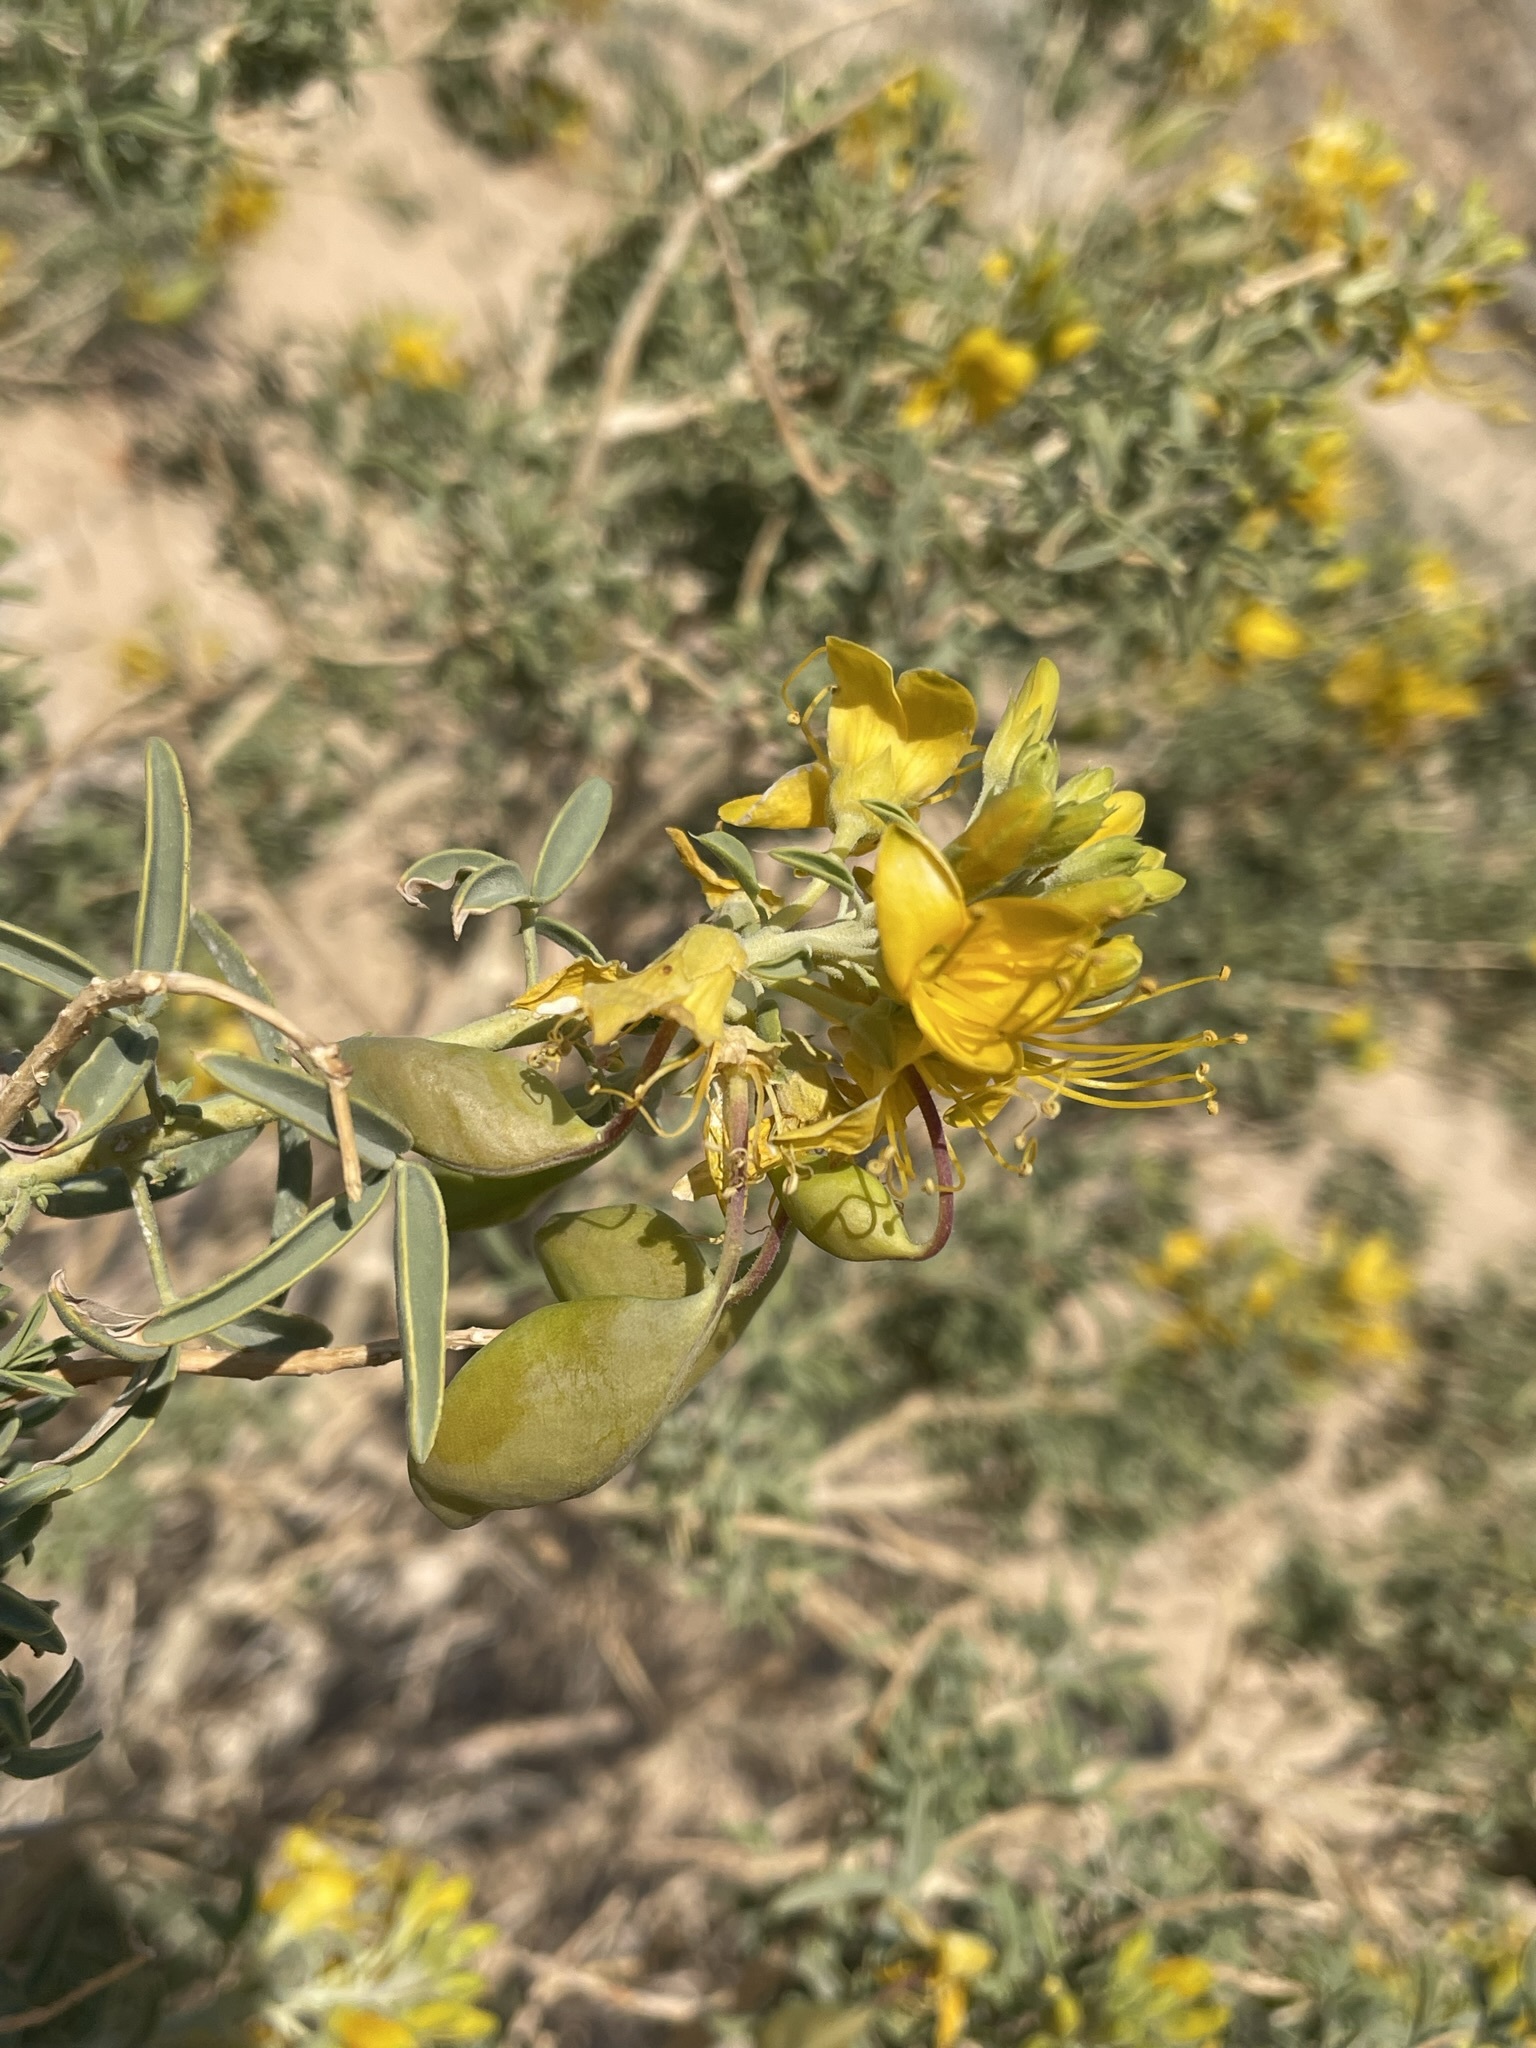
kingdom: Plantae
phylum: Tracheophyta
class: Magnoliopsida
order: Brassicales
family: Cleomaceae
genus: Cleomella
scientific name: Cleomella arborea
